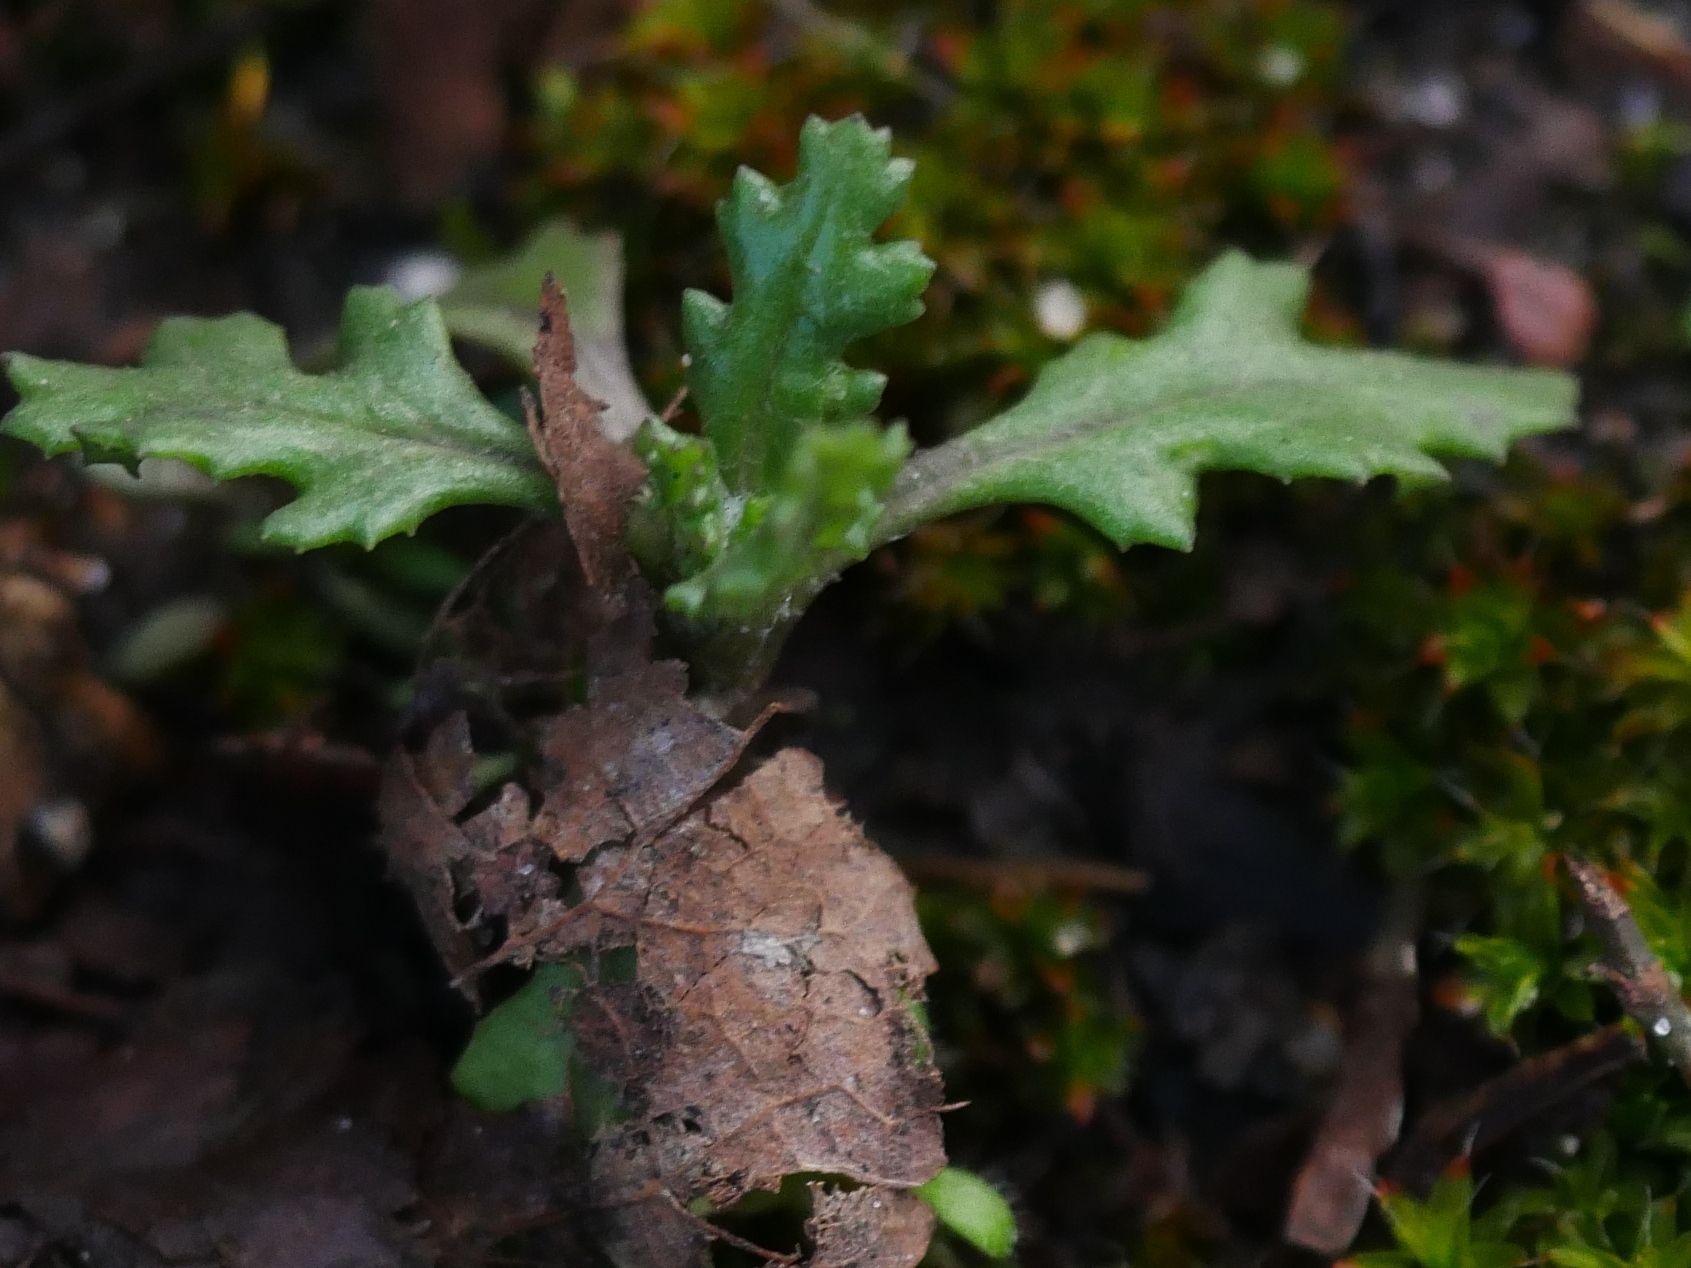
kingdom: Plantae
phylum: Tracheophyta
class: Magnoliopsida
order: Asterales
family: Asteraceae
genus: Senecio
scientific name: Senecio vulgaris
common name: Old-man-in-the-spring
